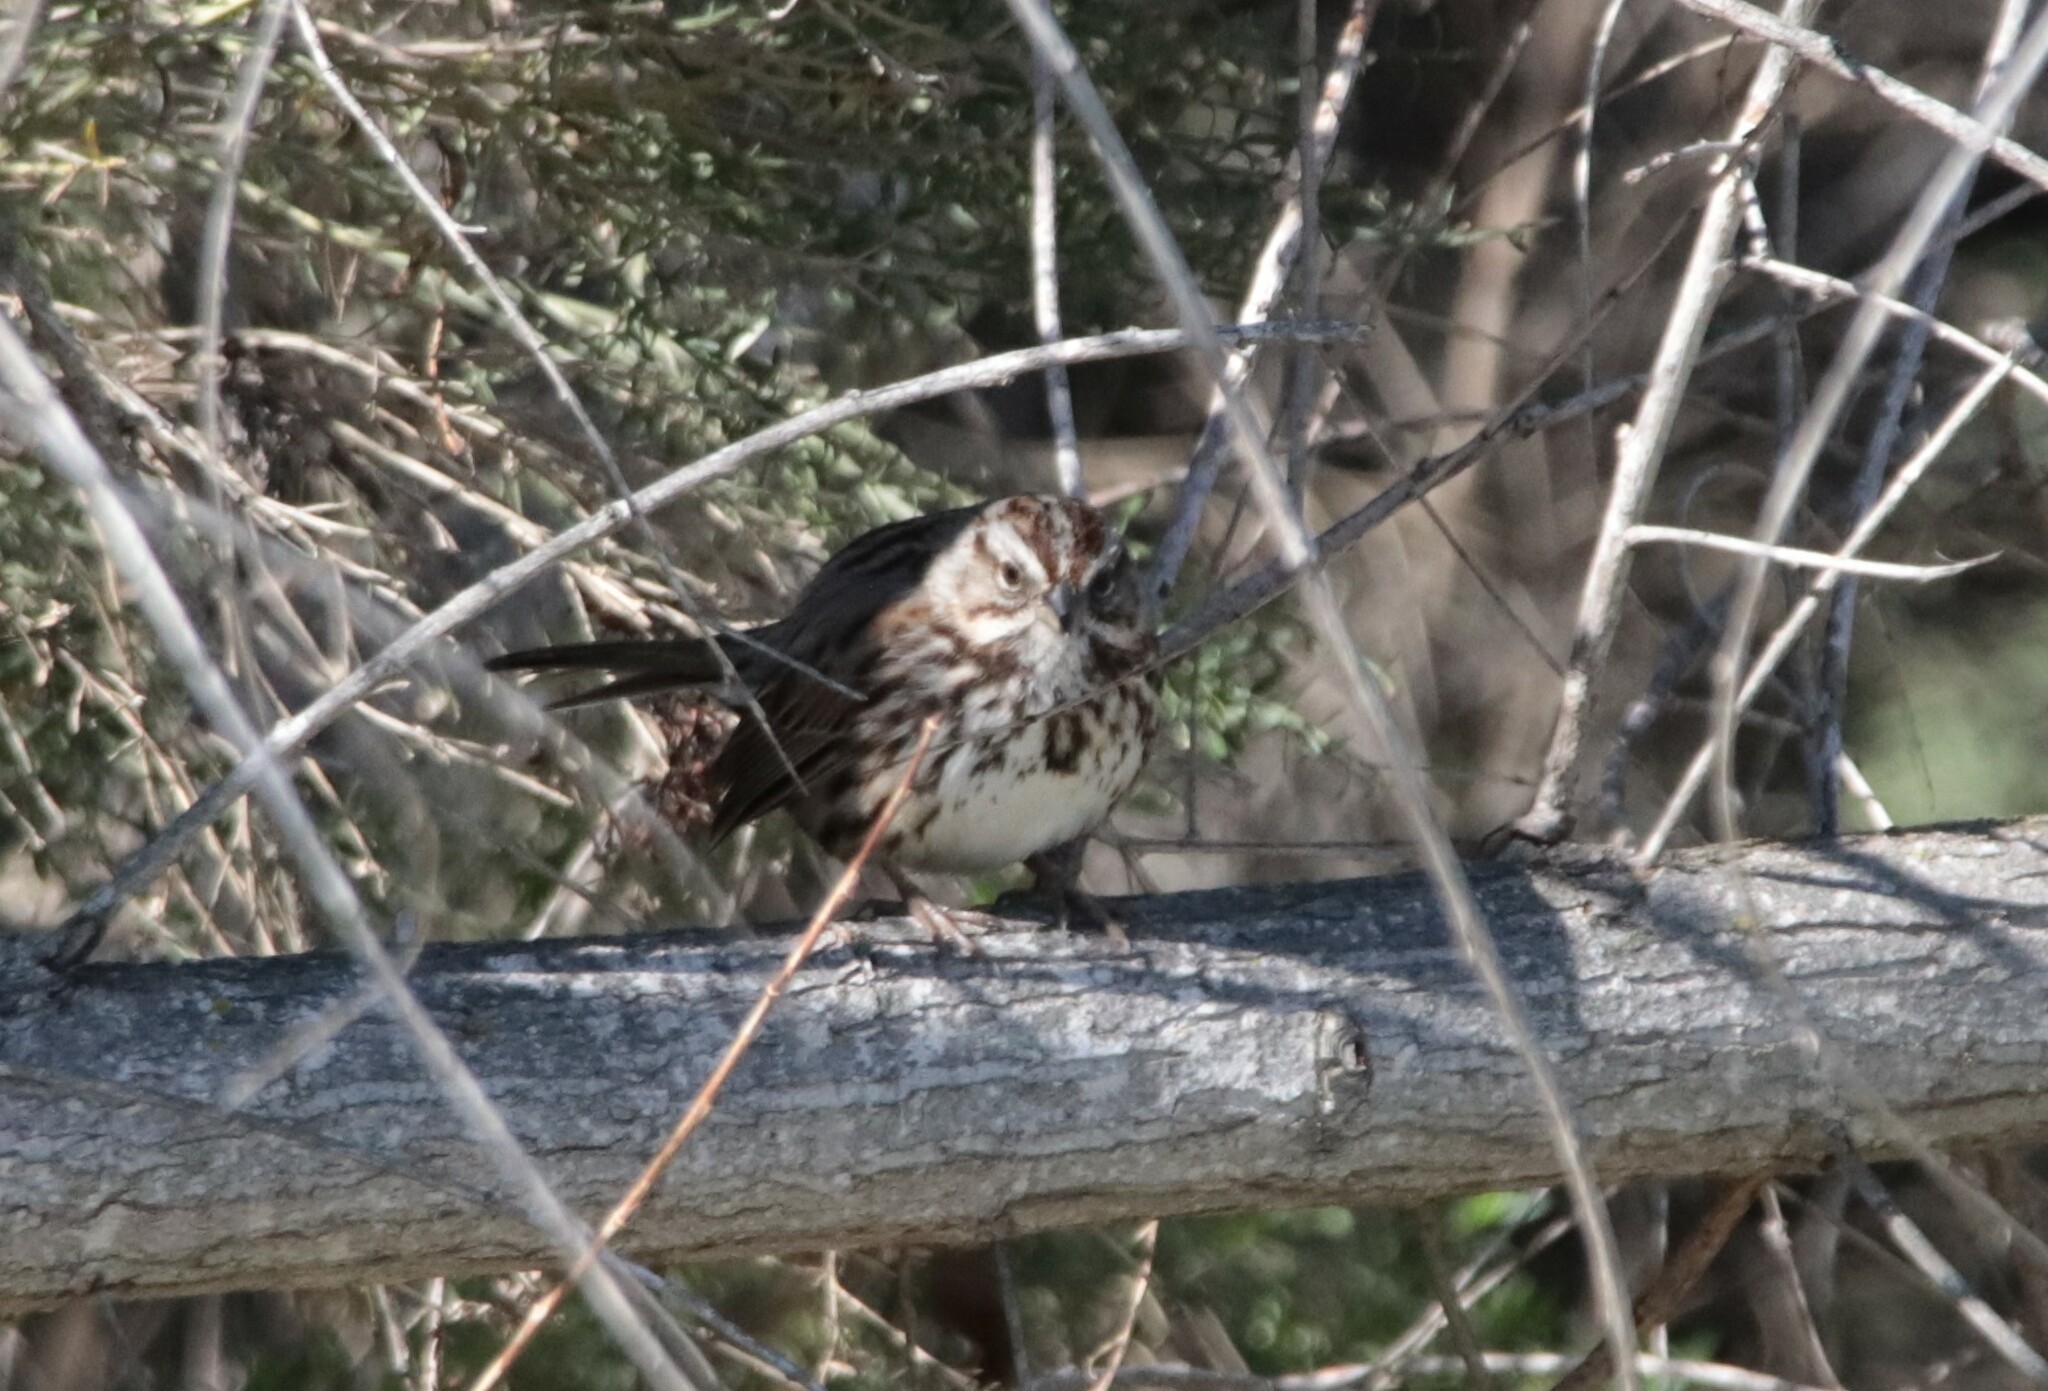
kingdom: Animalia
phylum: Chordata
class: Aves
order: Passeriformes
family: Passerellidae
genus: Melospiza
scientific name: Melospiza melodia
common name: Song sparrow
